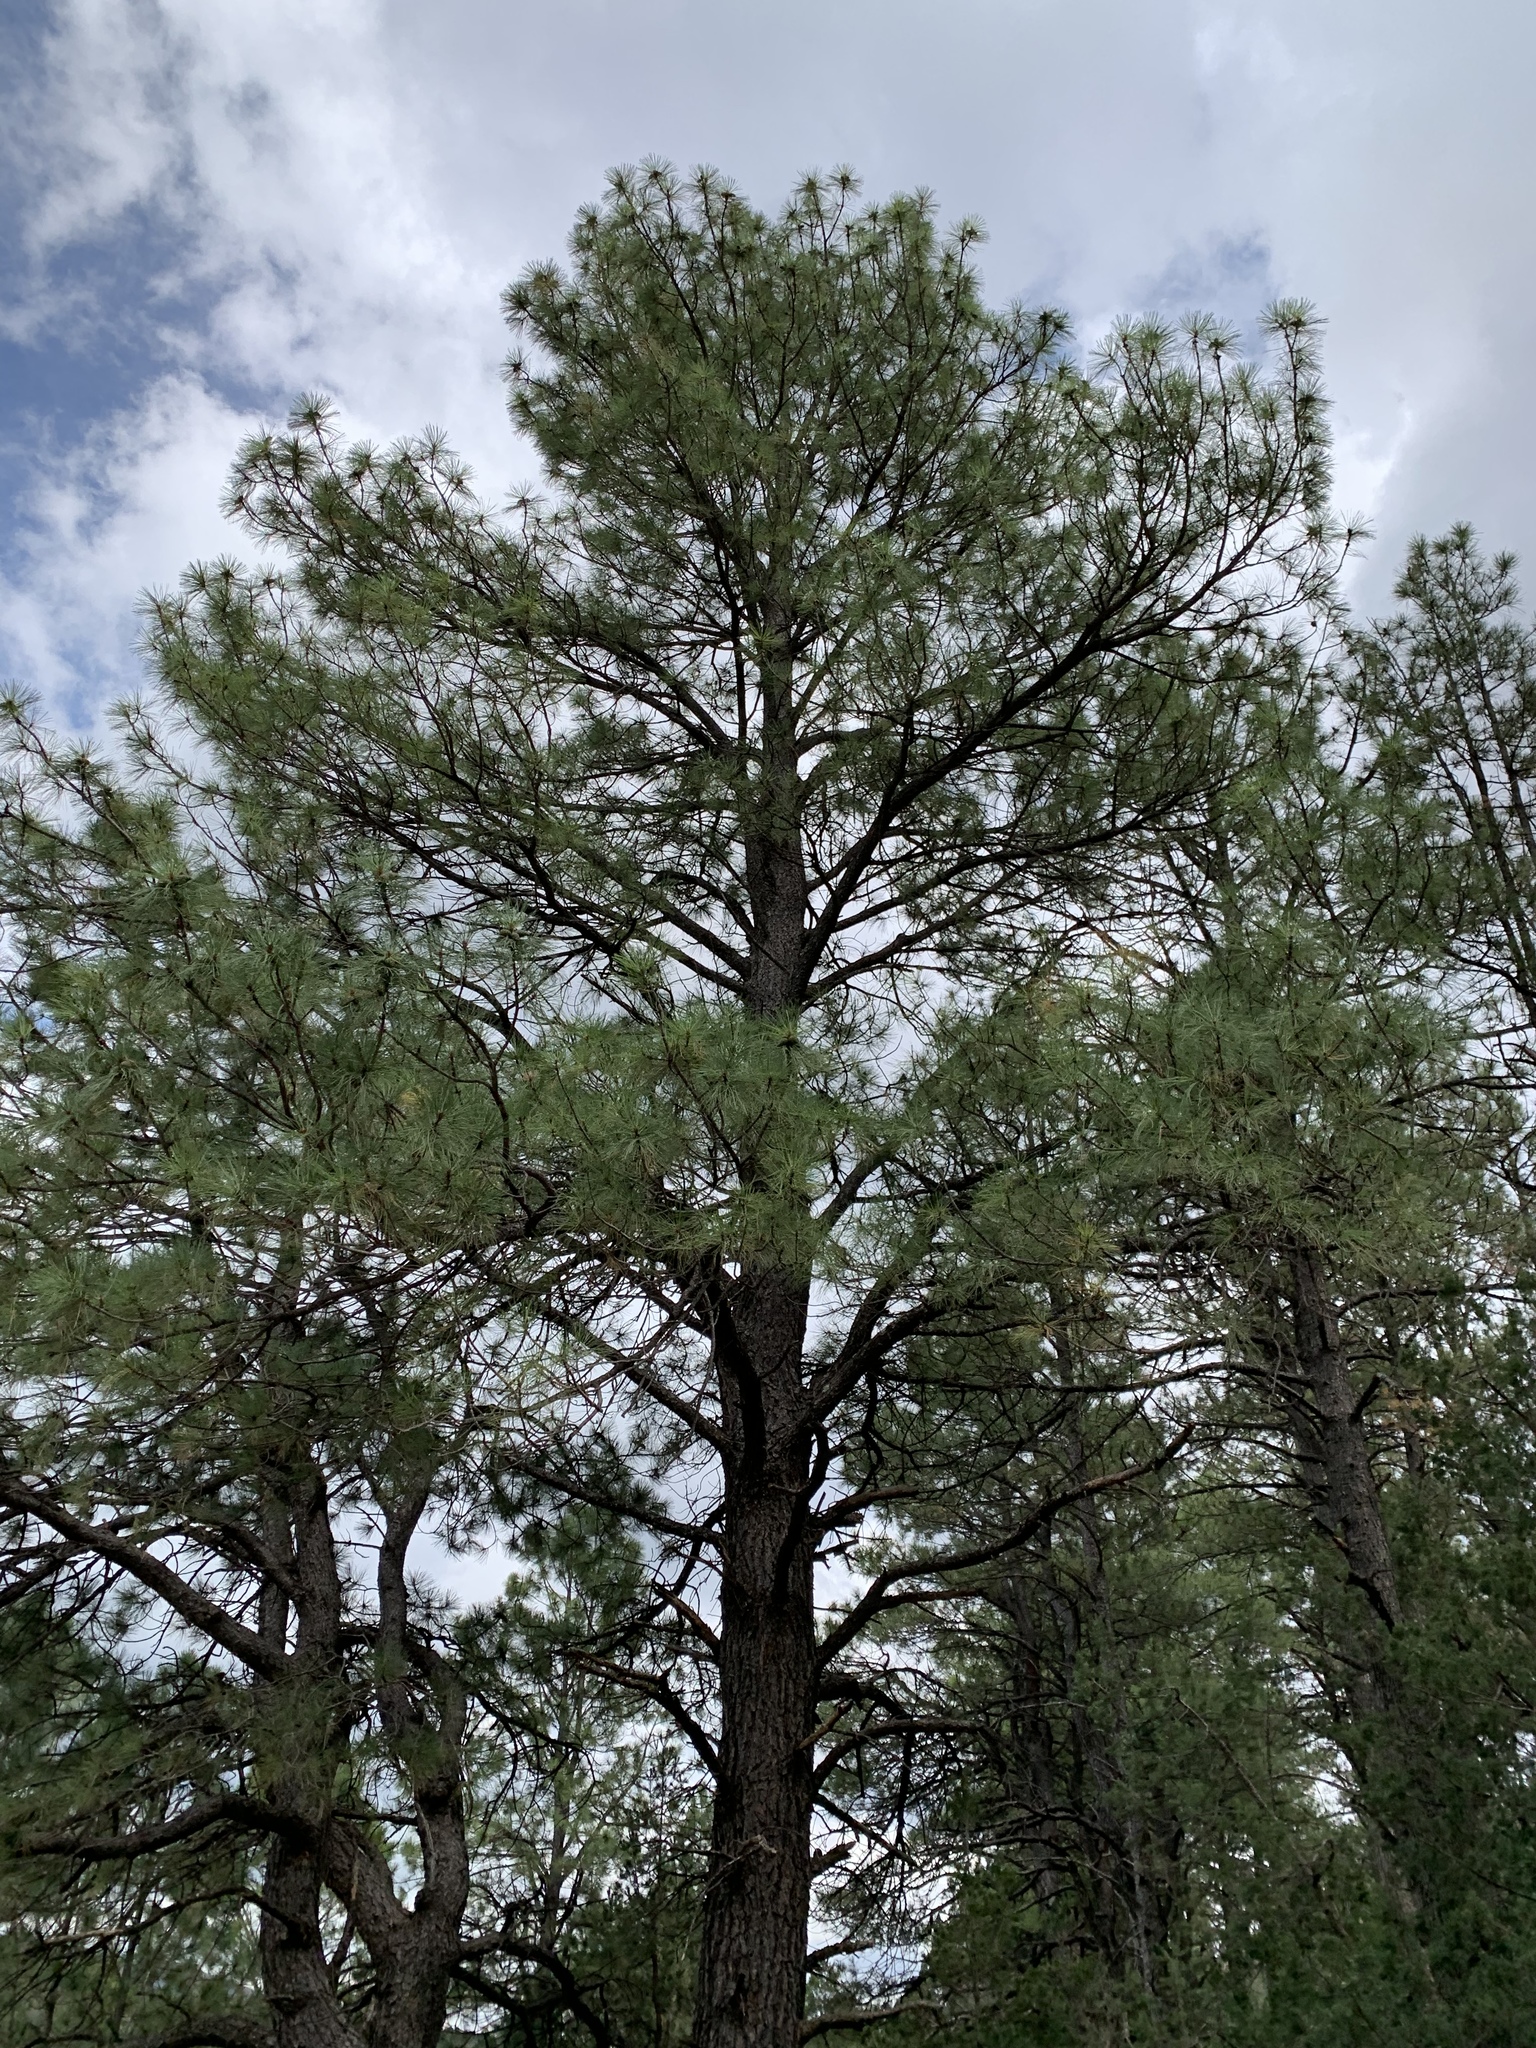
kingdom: Plantae
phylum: Tracheophyta
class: Pinopsida
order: Pinales
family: Pinaceae
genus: Pinus
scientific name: Pinus ponderosa
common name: Western yellow-pine
